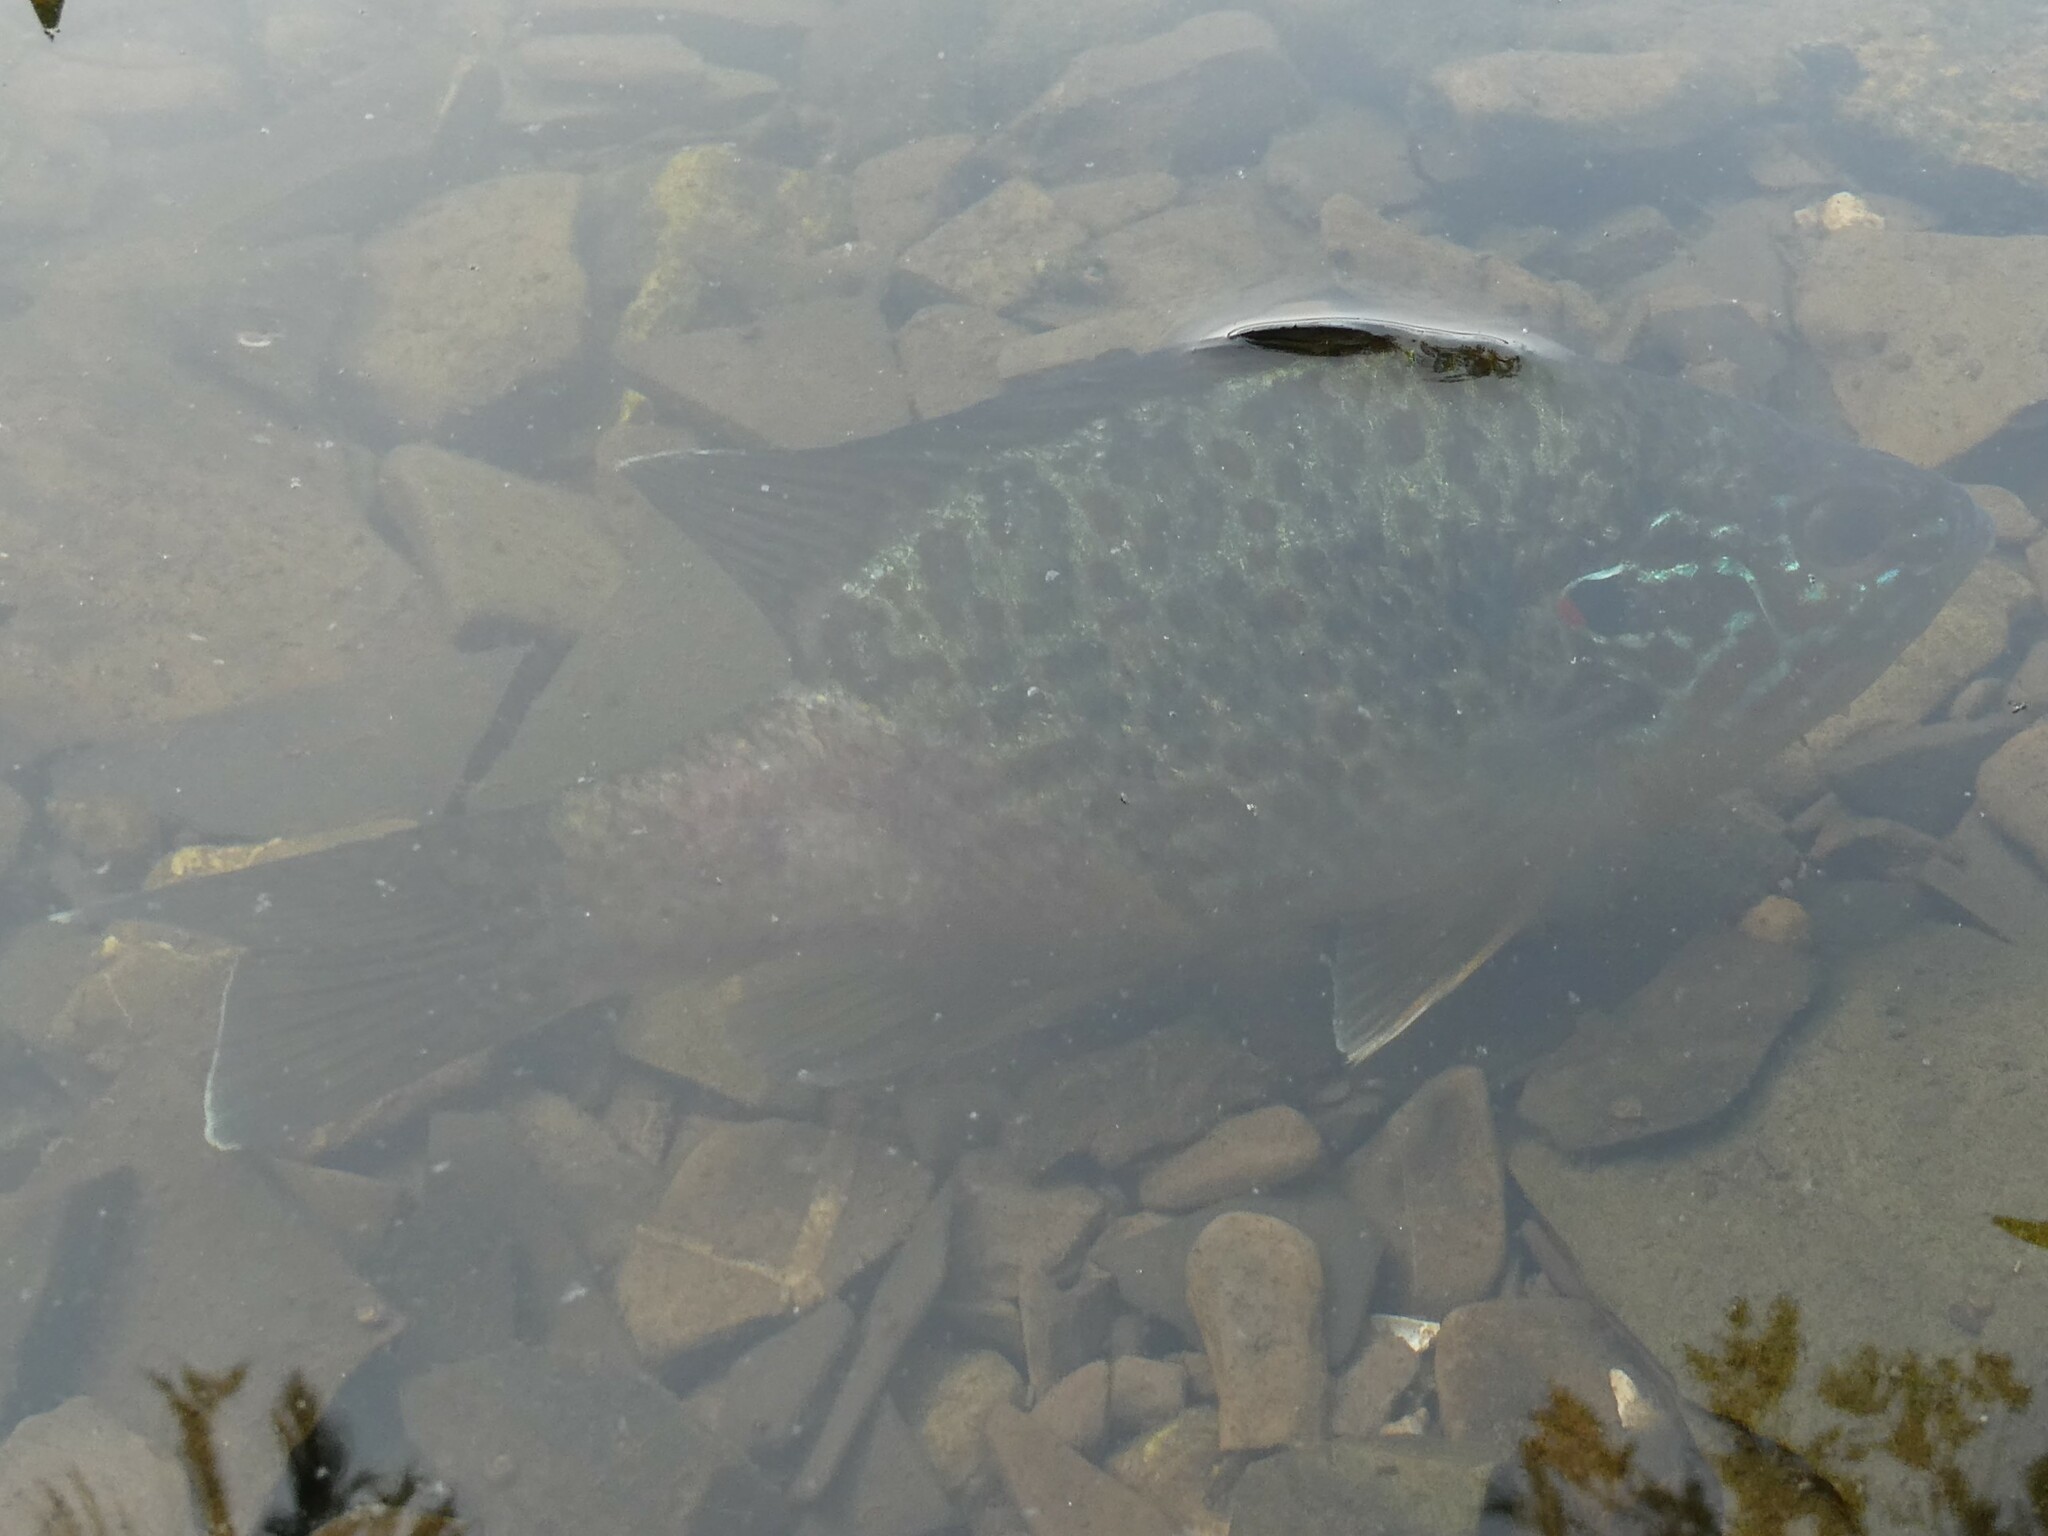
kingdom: Animalia
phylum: Chordata
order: Perciformes
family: Centrarchidae
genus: Lepomis
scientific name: Lepomis gibbosus
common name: Pumpkinseed
